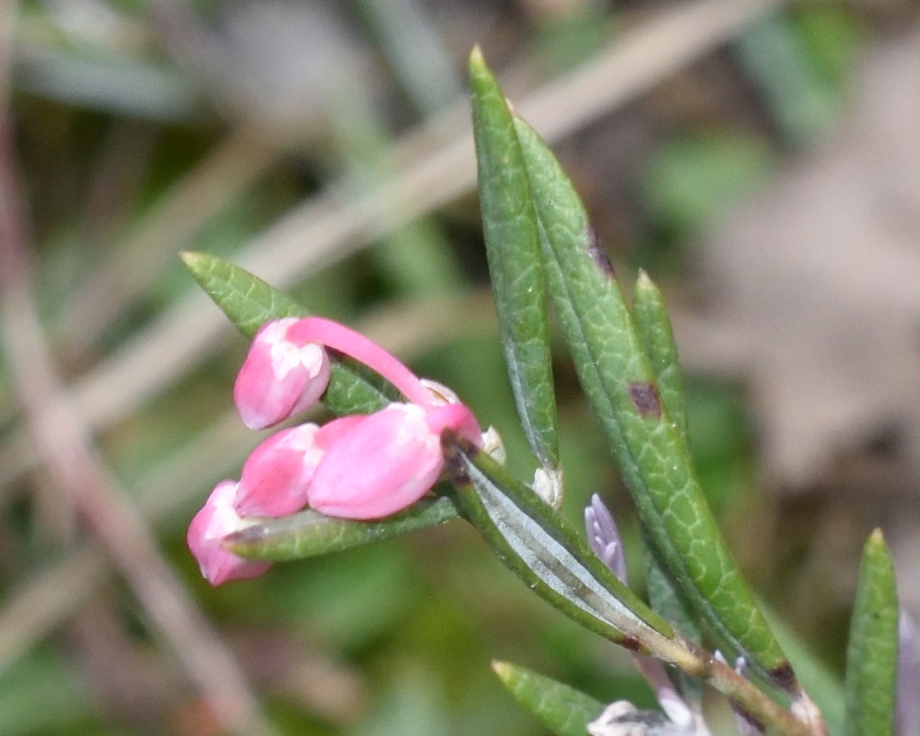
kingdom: Plantae
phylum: Tracheophyta
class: Magnoliopsida
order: Ericales
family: Ericaceae
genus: Andromeda
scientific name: Andromeda polifolia
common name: Bog-rosemary
